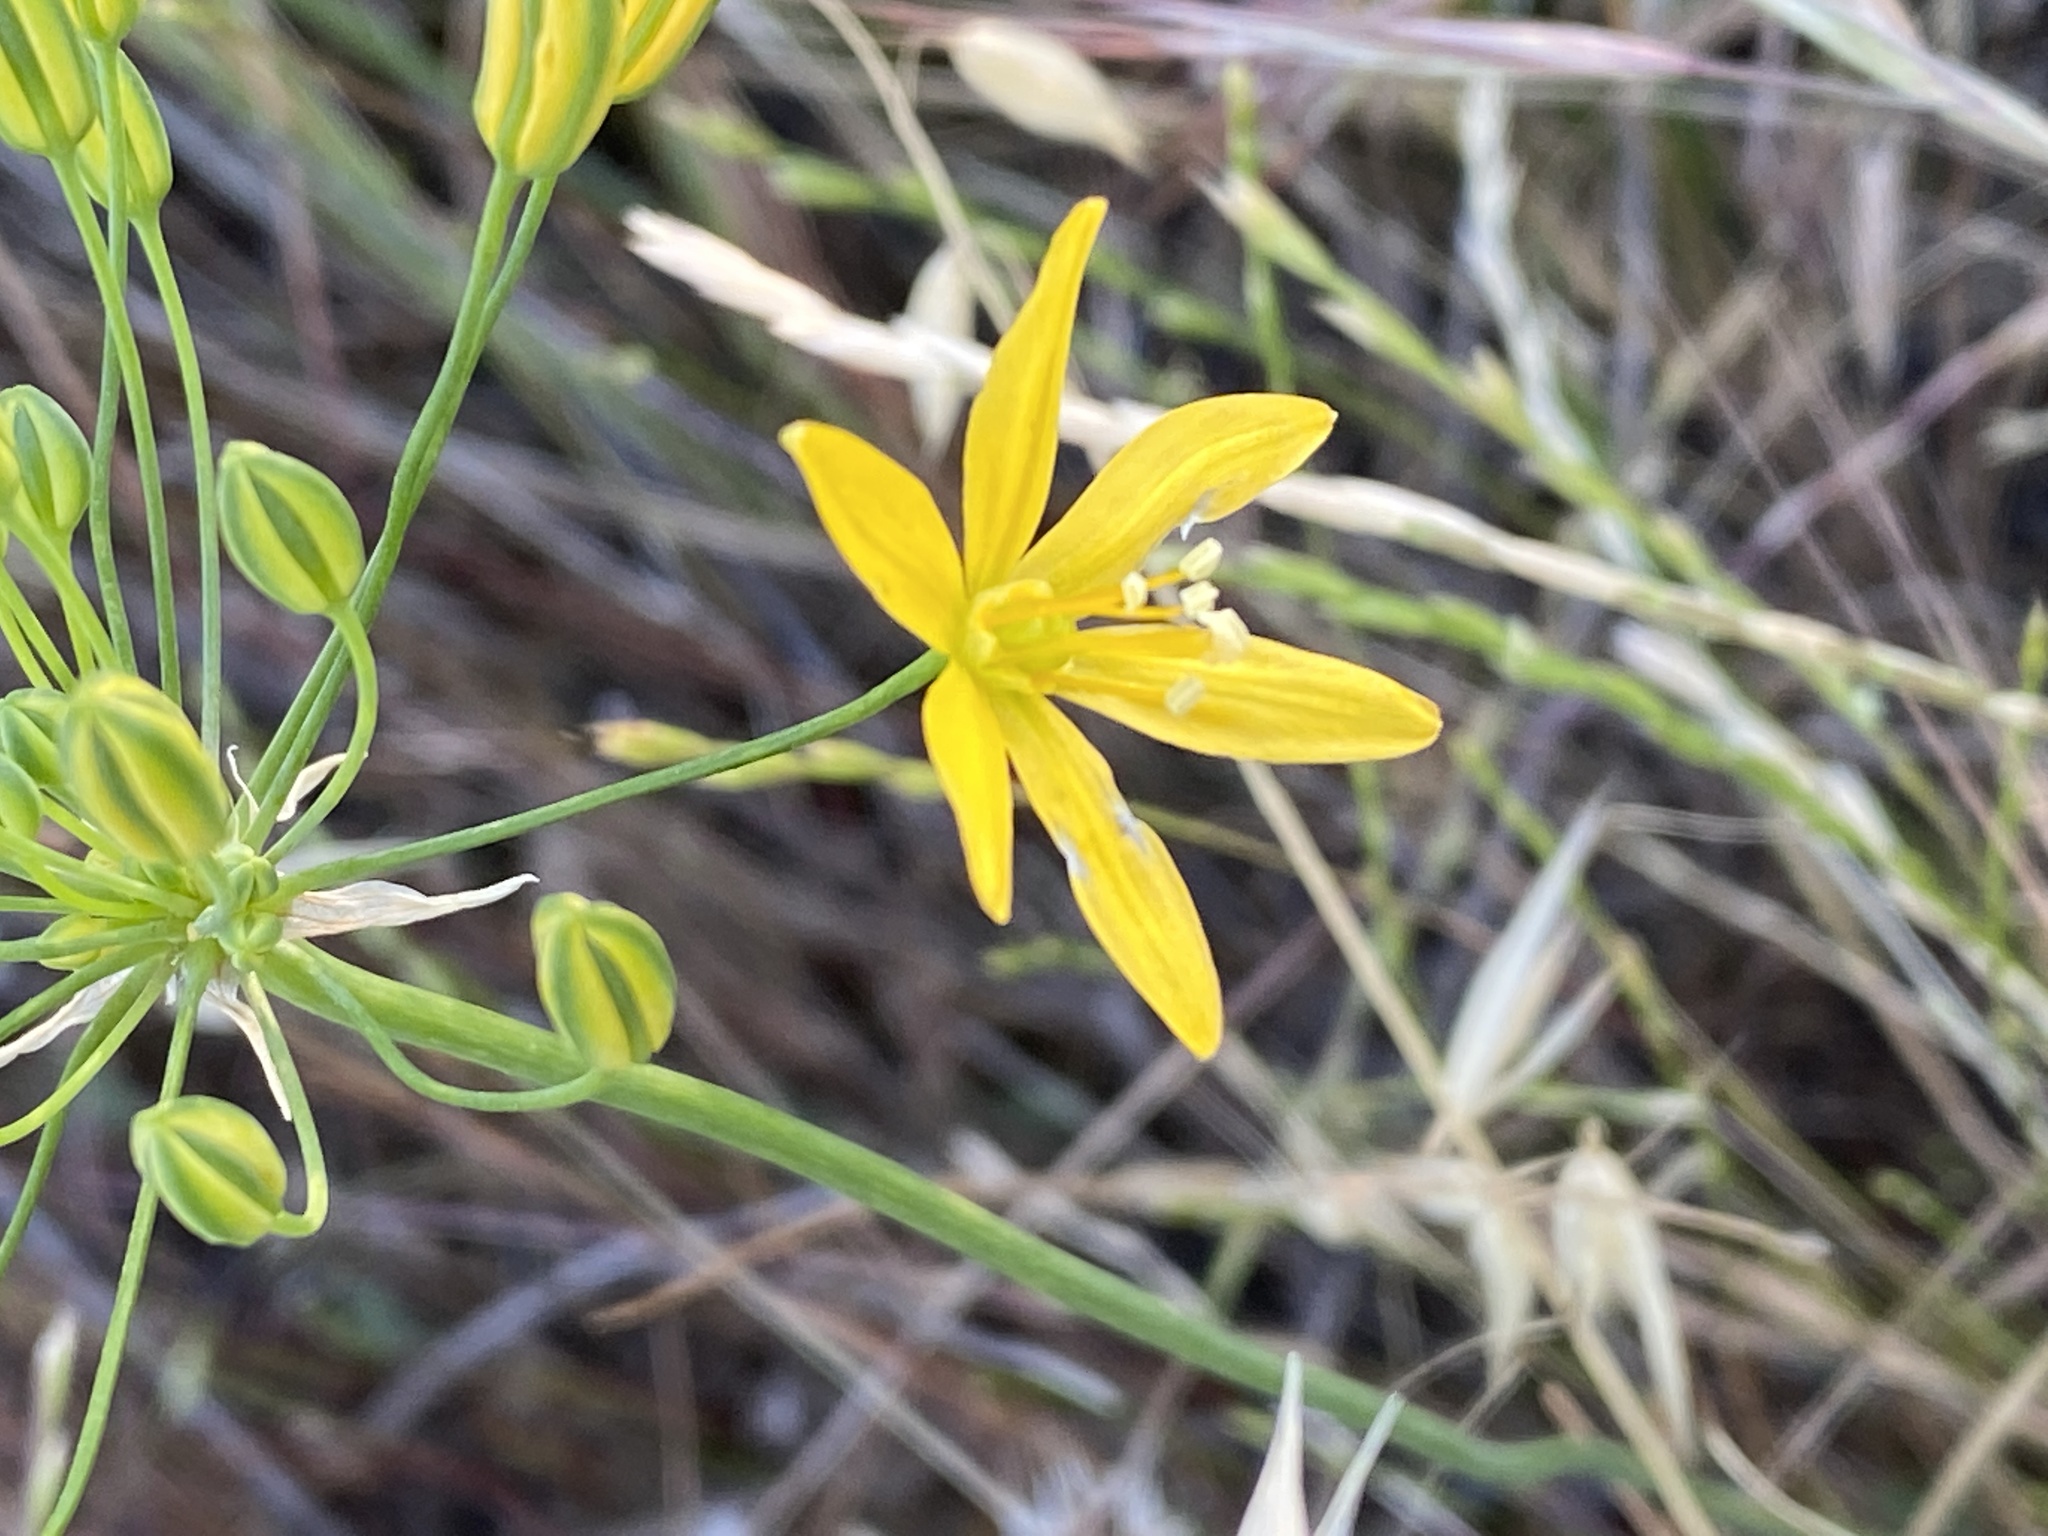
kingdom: Plantae
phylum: Tracheophyta
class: Liliopsida
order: Asparagales
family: Asparagaceae
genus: Bloomeria
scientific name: Bloomeria crocea
